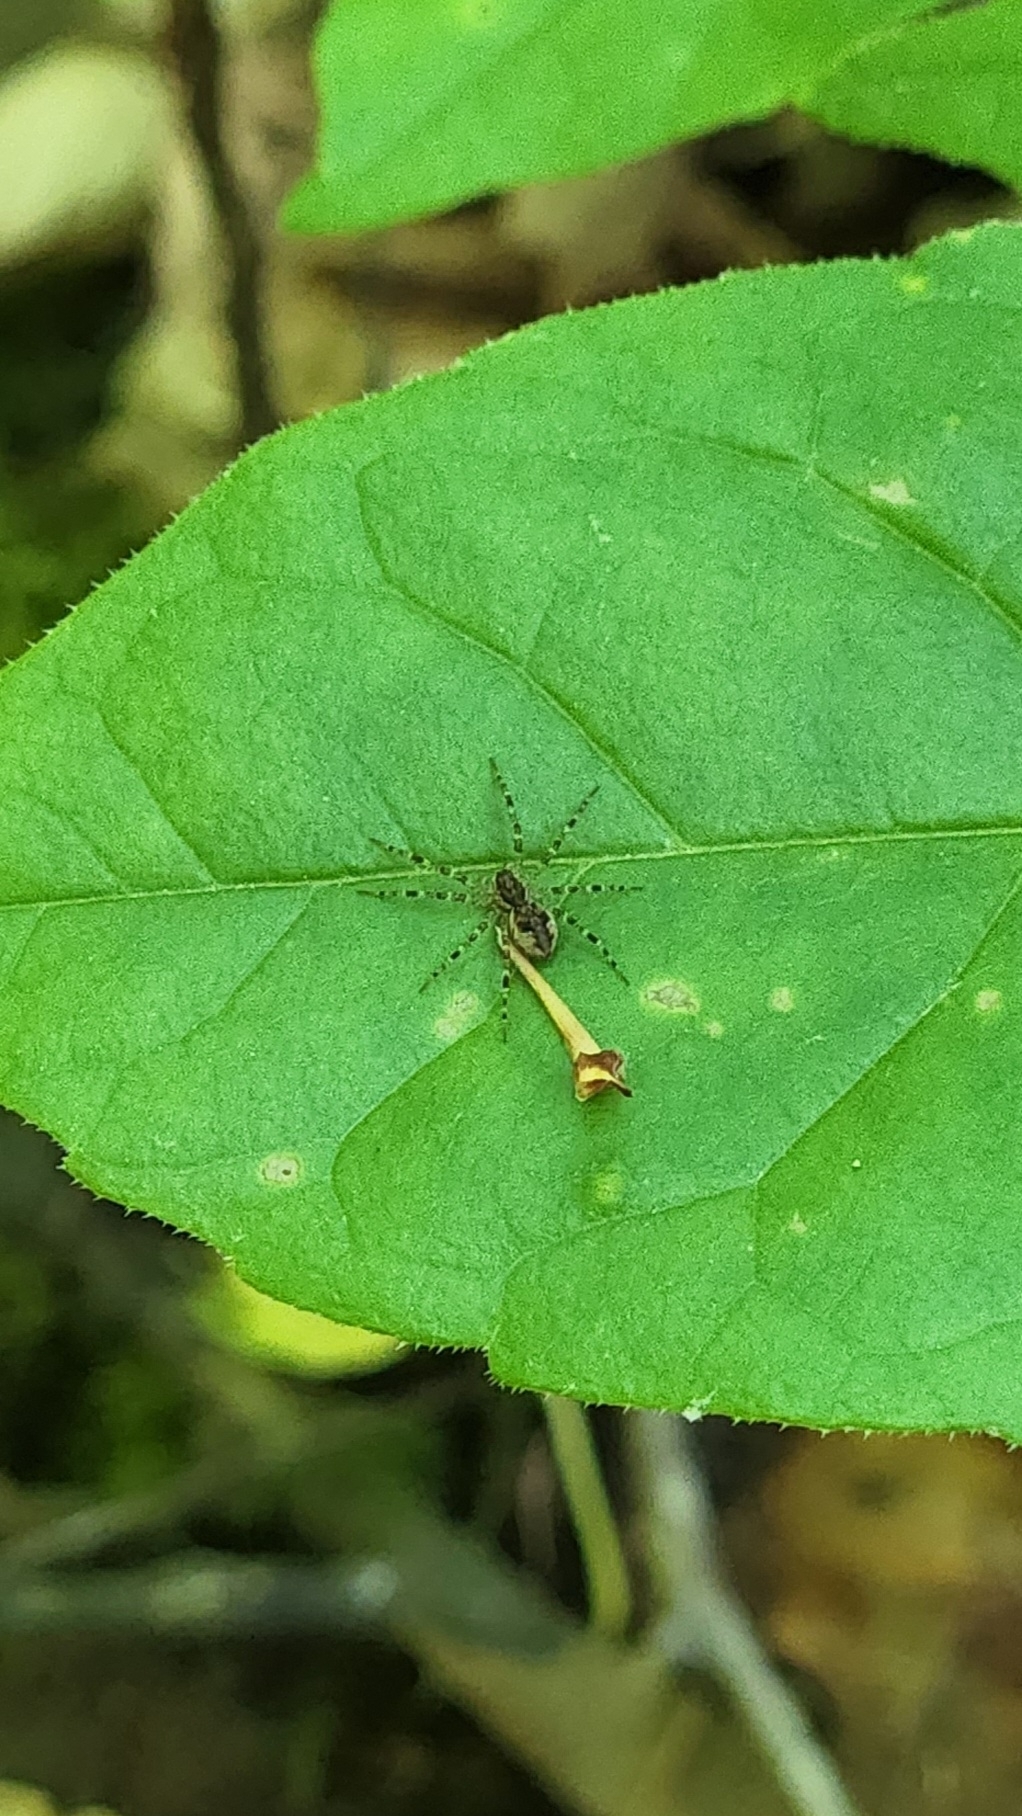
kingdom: Animalia
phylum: Arthropoda
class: Arachnida
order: Araneae
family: Pisauridae
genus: Dolomedes
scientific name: Dolomedes tenebrosus
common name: Dark fishing spider
